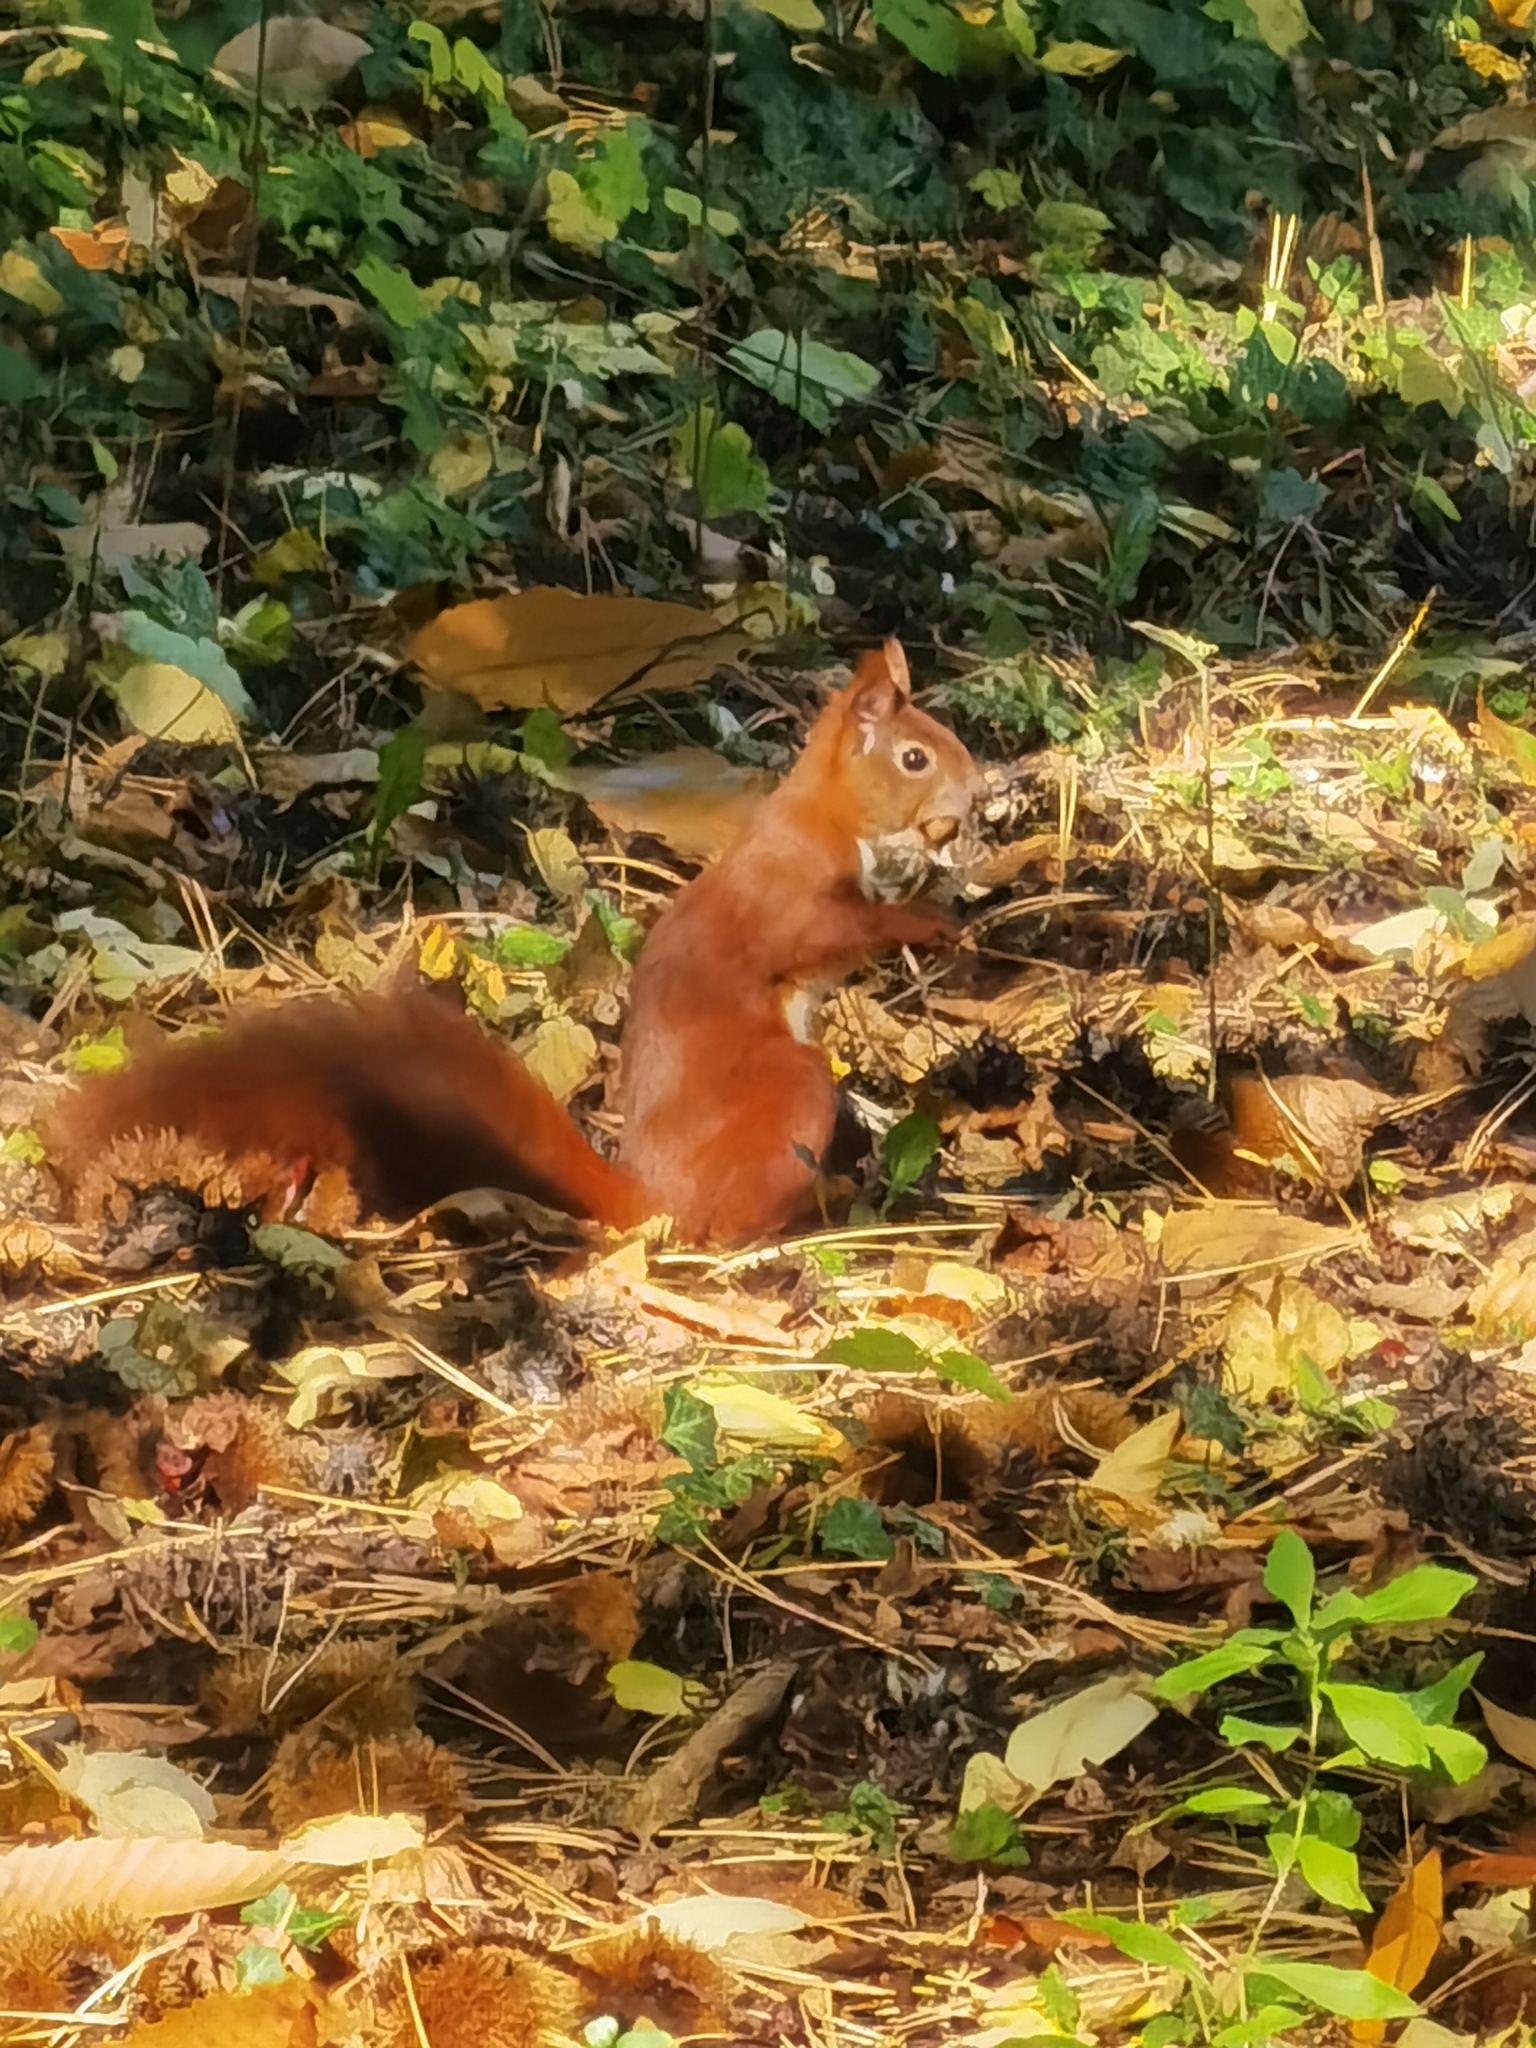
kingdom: Animalia
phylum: Chordata
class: Mammalia
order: Rodentia
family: Sciuridae
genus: Sciurus
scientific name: Sciurus vulgaris
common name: Eurasian red squirrel
